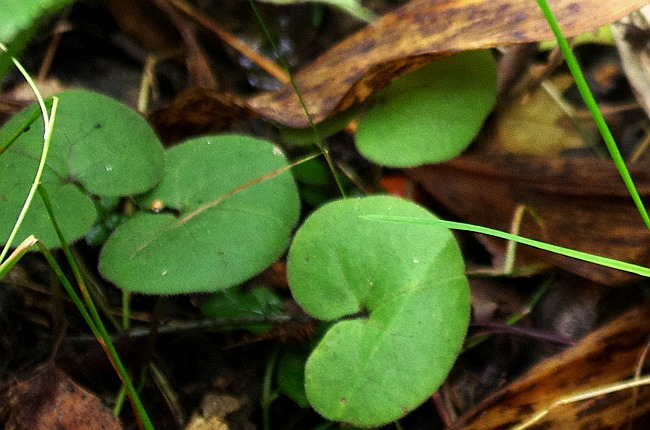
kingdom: Plantae
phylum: Tracheophyta
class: Magnoliopsida
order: Piperales
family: Aristolochiaceae
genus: Asarum
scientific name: Asarum europaeum
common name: Asarabacca
